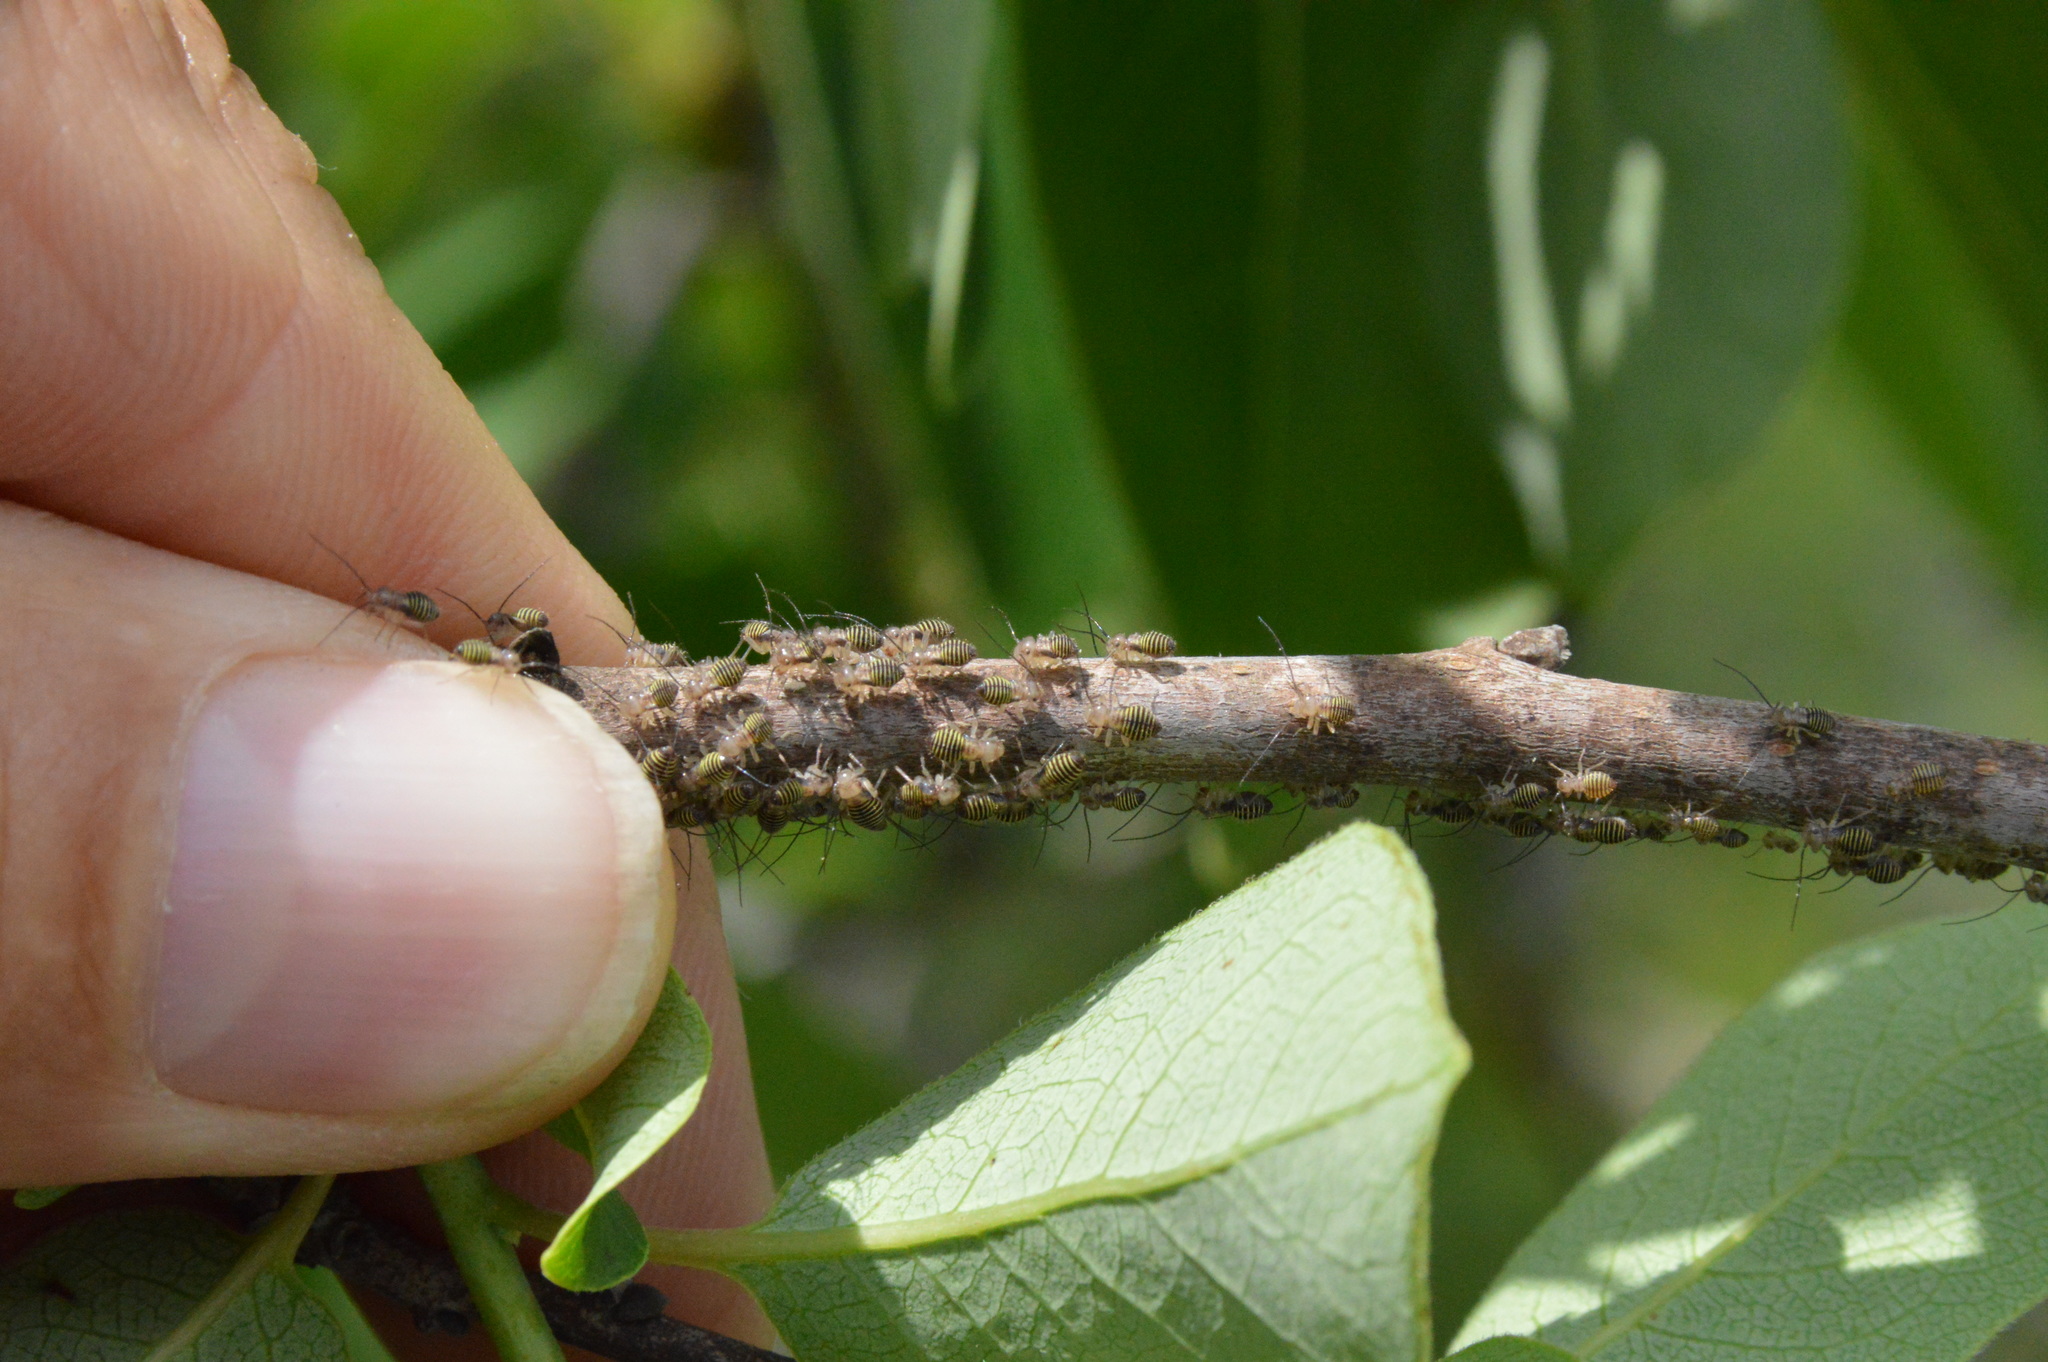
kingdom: Animalia
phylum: Arthropoda
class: Insecta
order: Psocodea
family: Psocidae
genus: Cerastipsocus
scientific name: Cerastipsocus venosus
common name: Tree cattle
